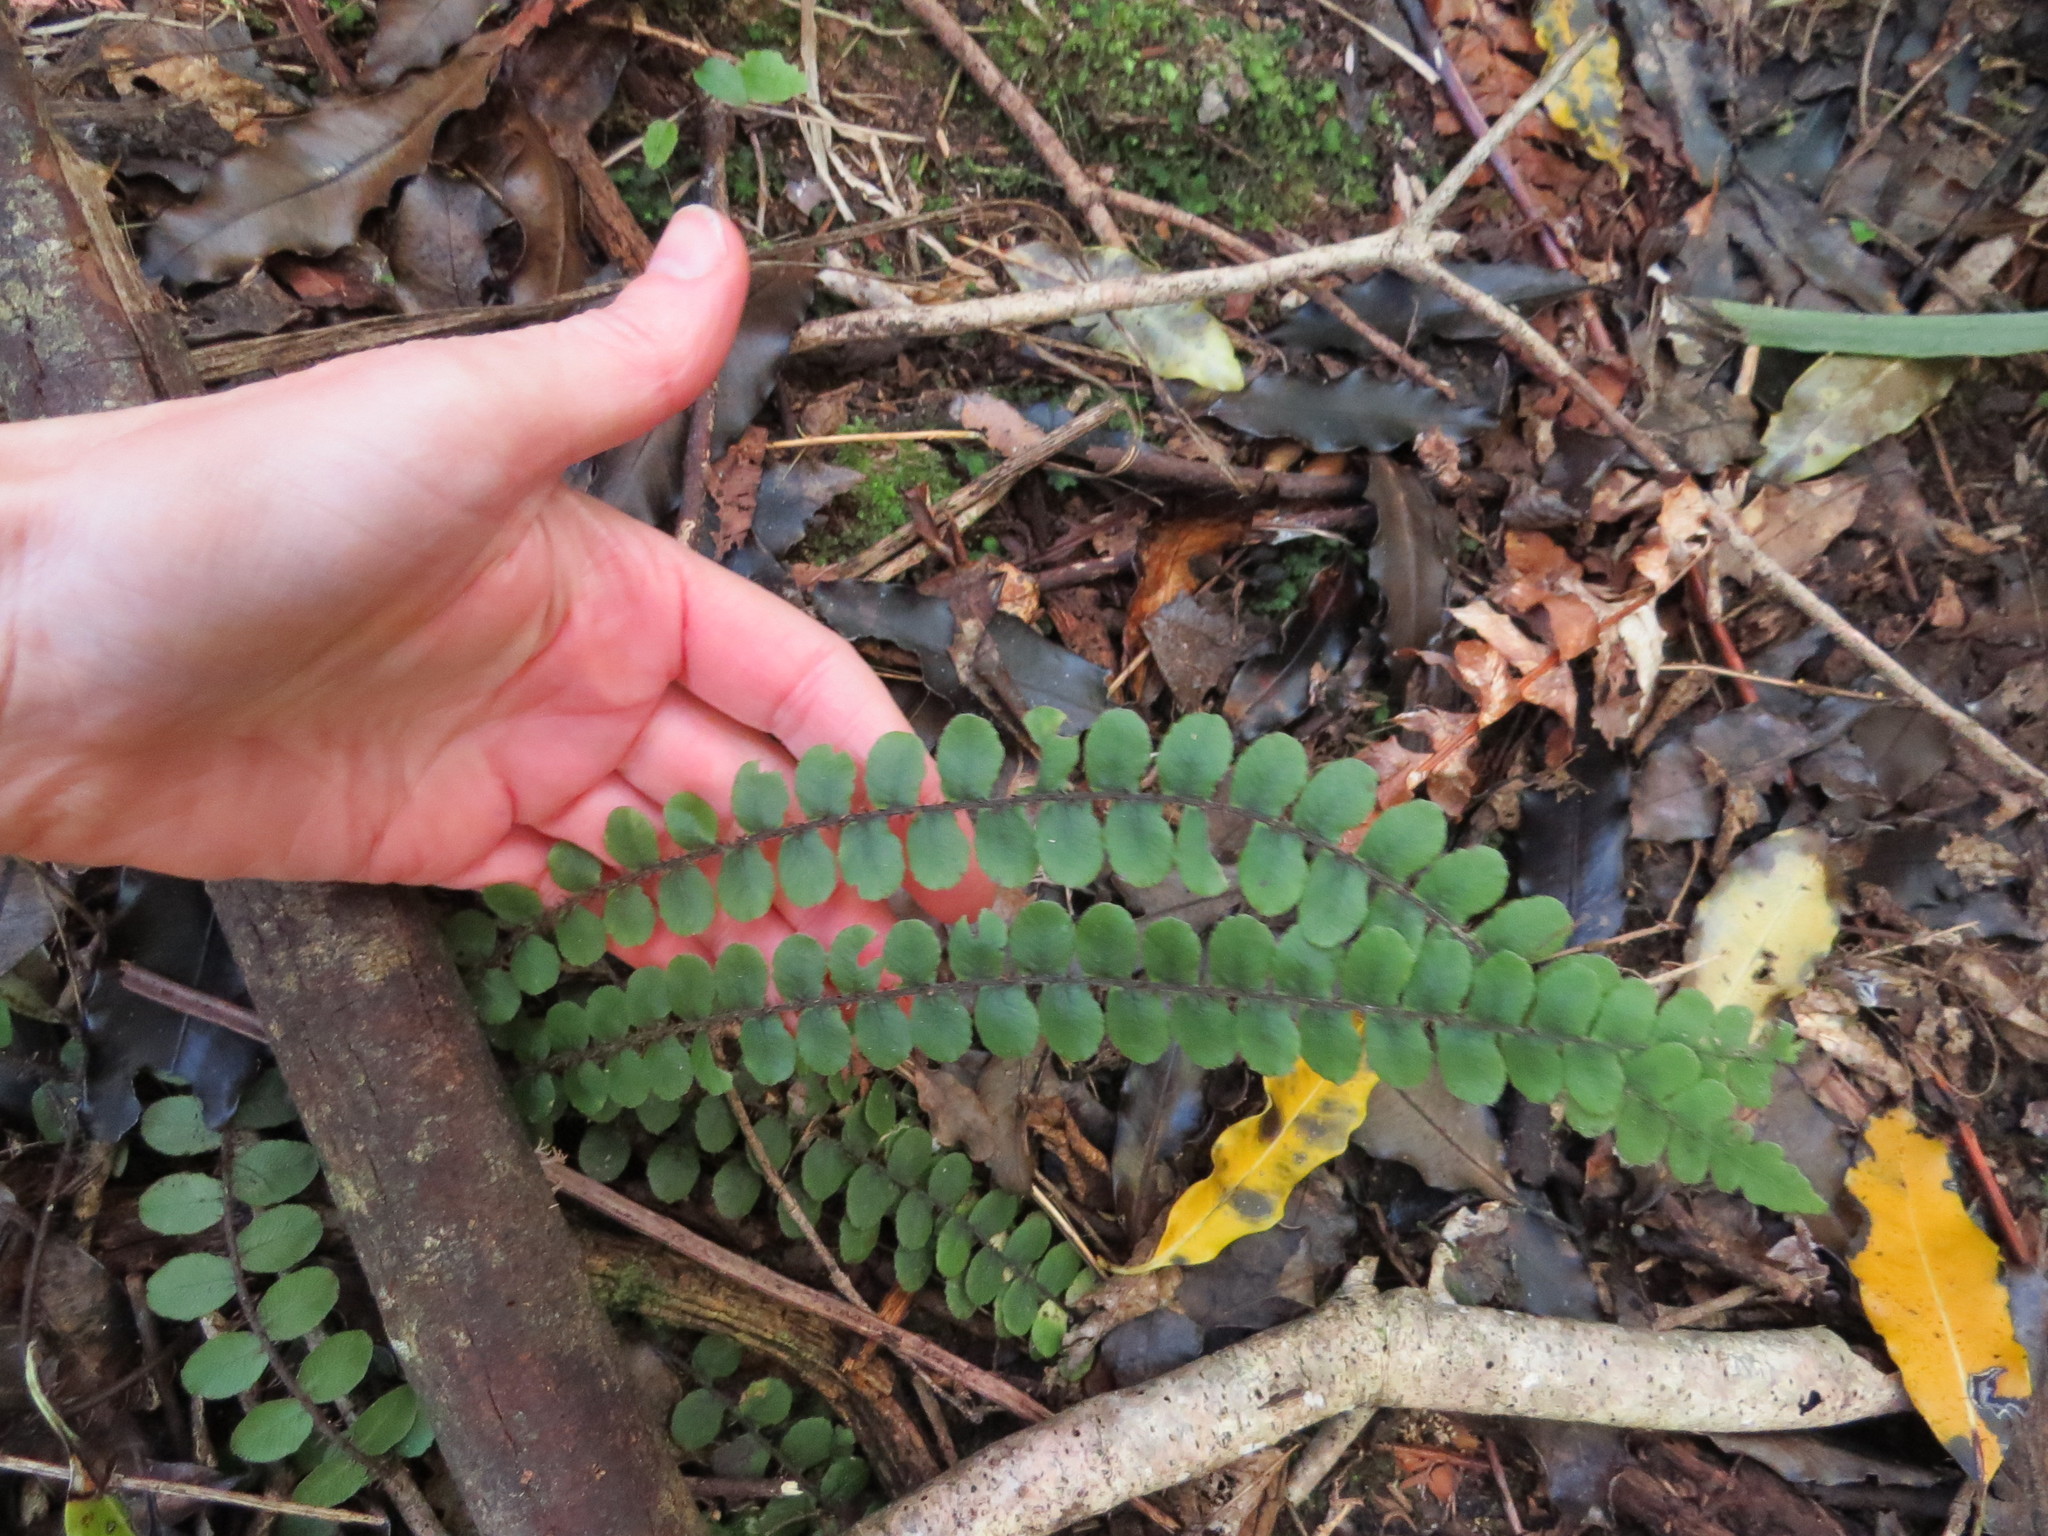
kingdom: Plantae
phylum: Tracheophyta
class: Polypodiopsida
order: Polypodiales
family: Blechnaceae
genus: Cranfillia
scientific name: Cranfillia fluviatilis
